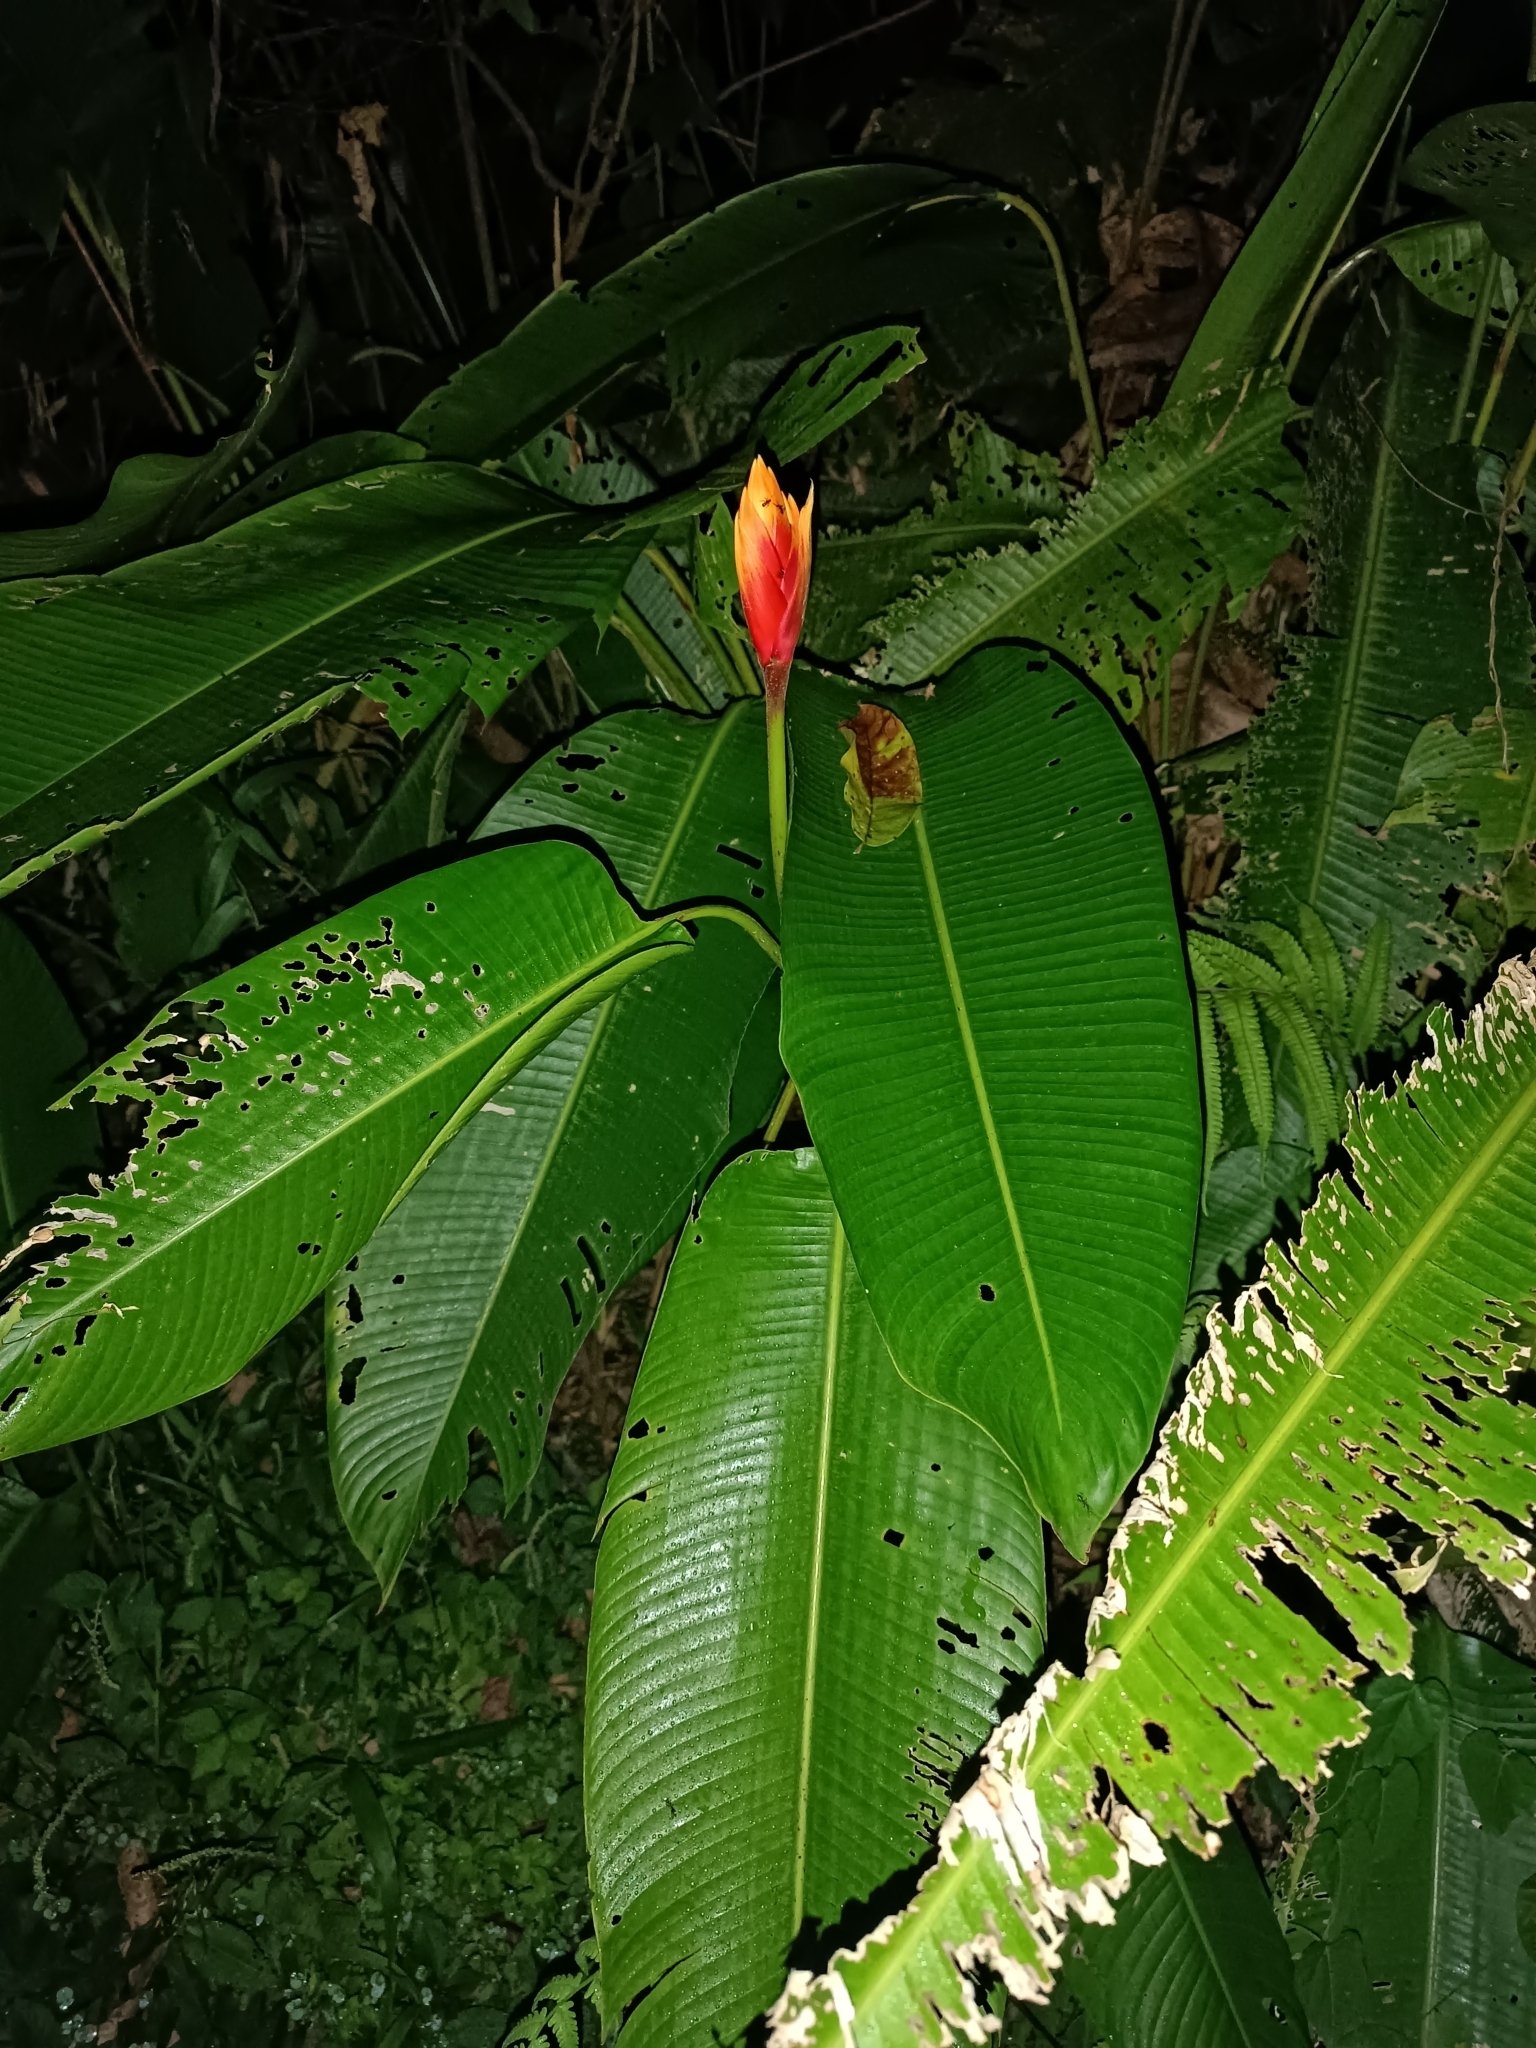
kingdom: Plantae
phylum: Tracheophyta
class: Liliopsida
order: Zingiberales
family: Heliconiaceae
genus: Heliconia
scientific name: Heliconia episcopalis
